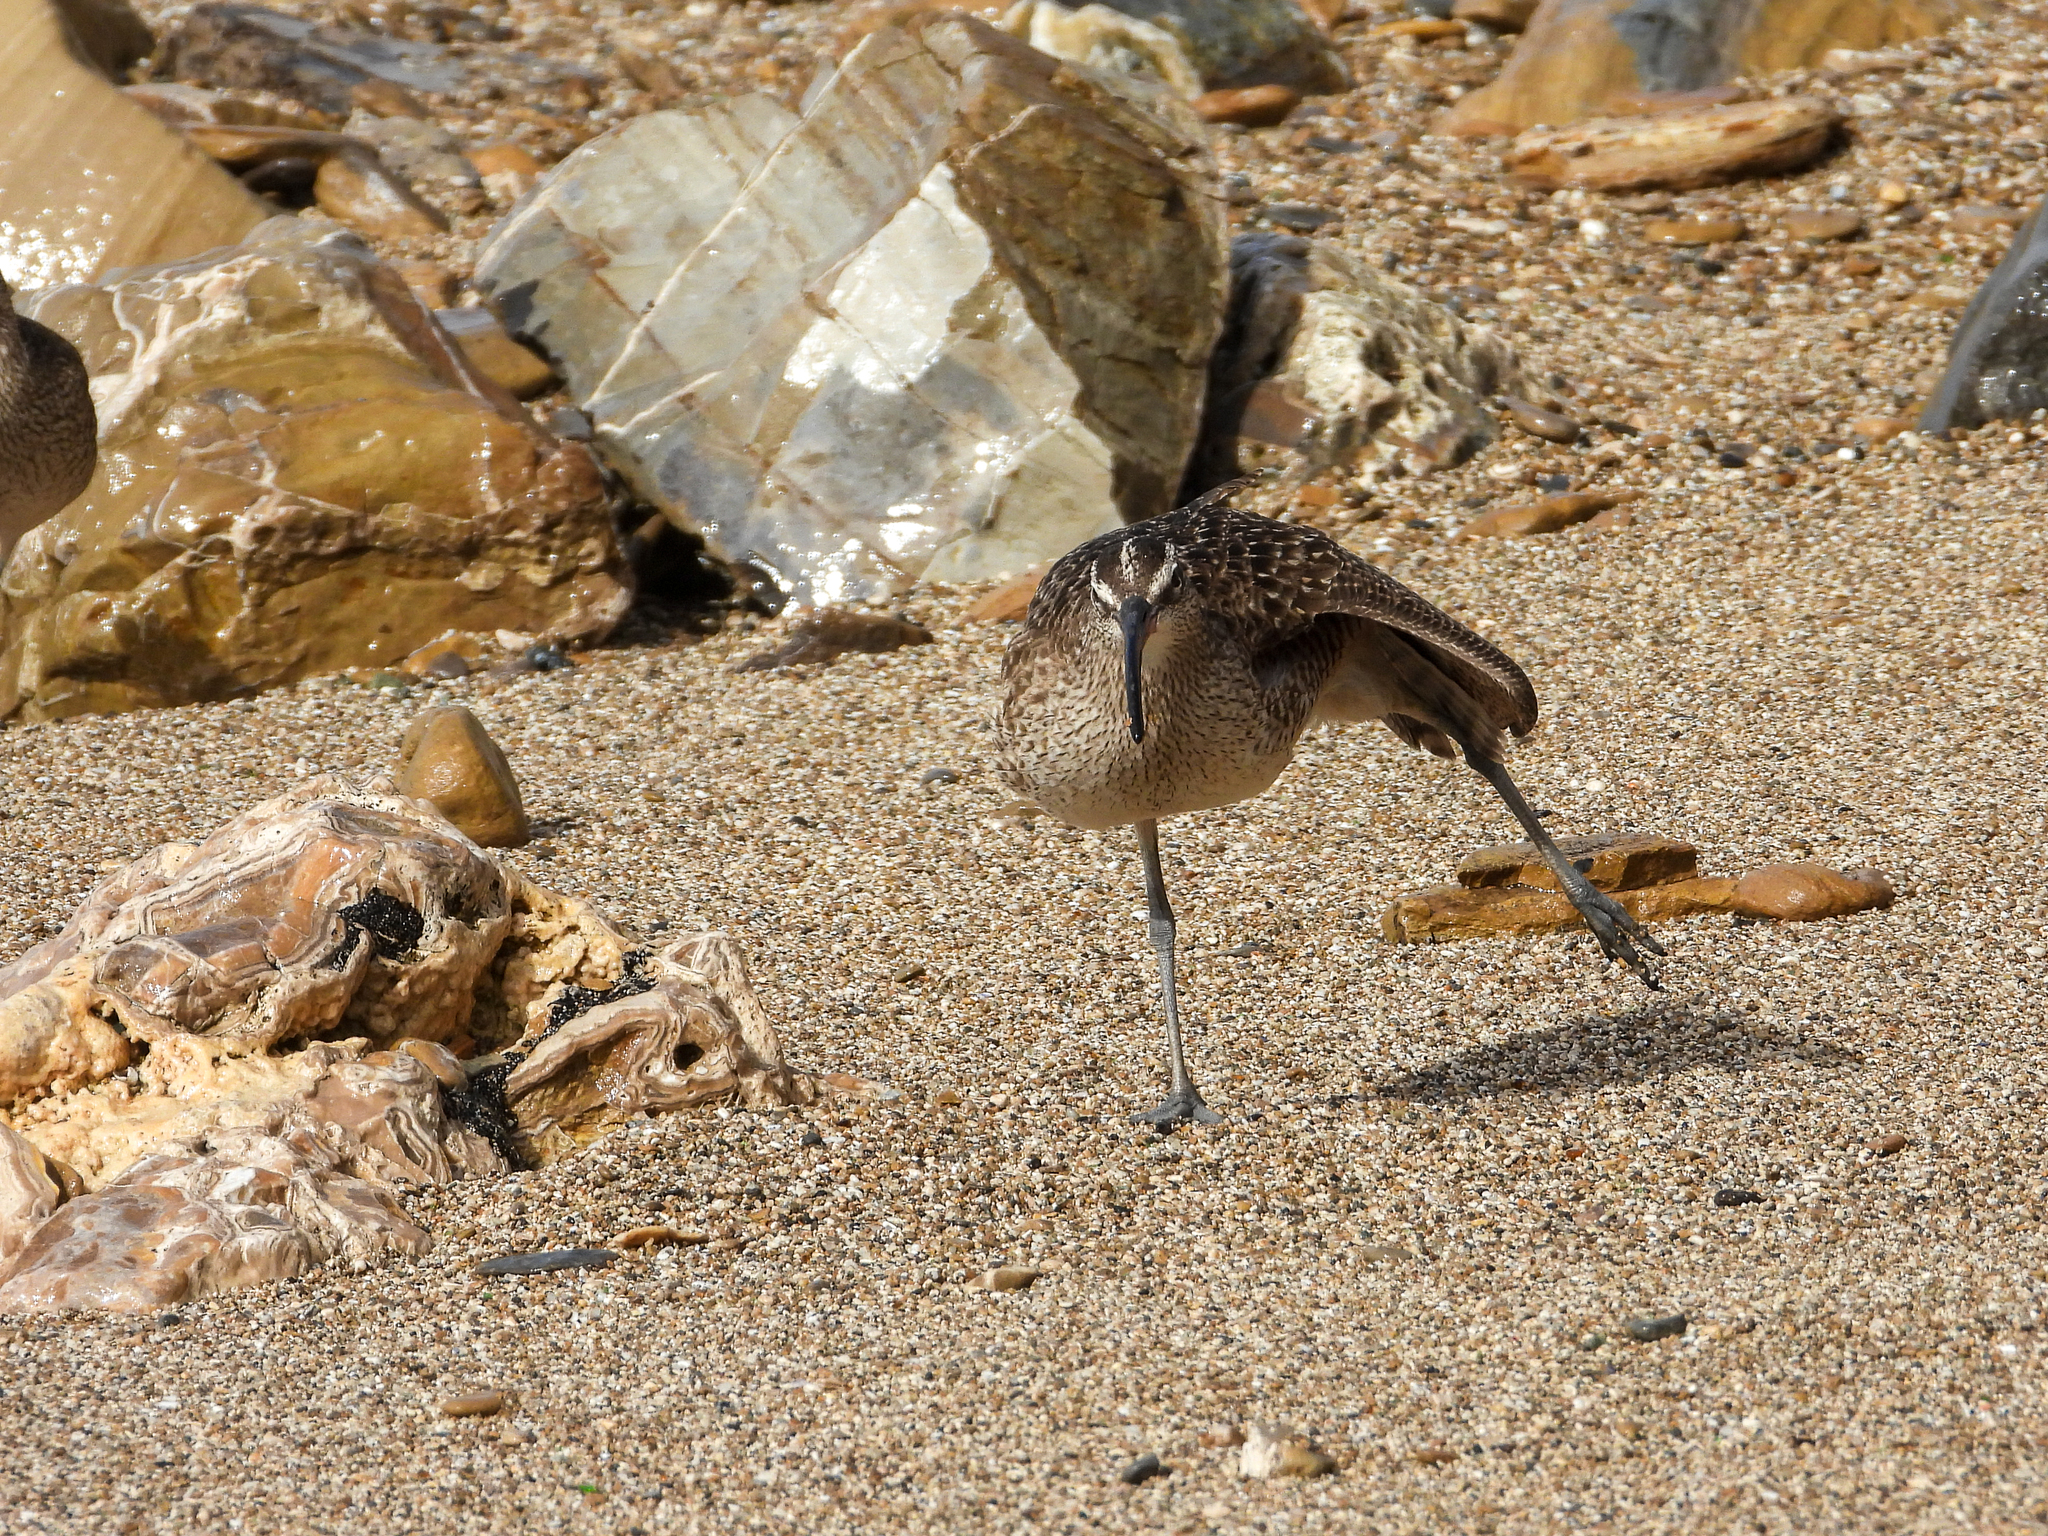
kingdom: Animalia
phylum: Chordata
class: Aves
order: Charadriiformes
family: Scolopacidae
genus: Numenius
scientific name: Numenius phaeopus
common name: Whimbrel
